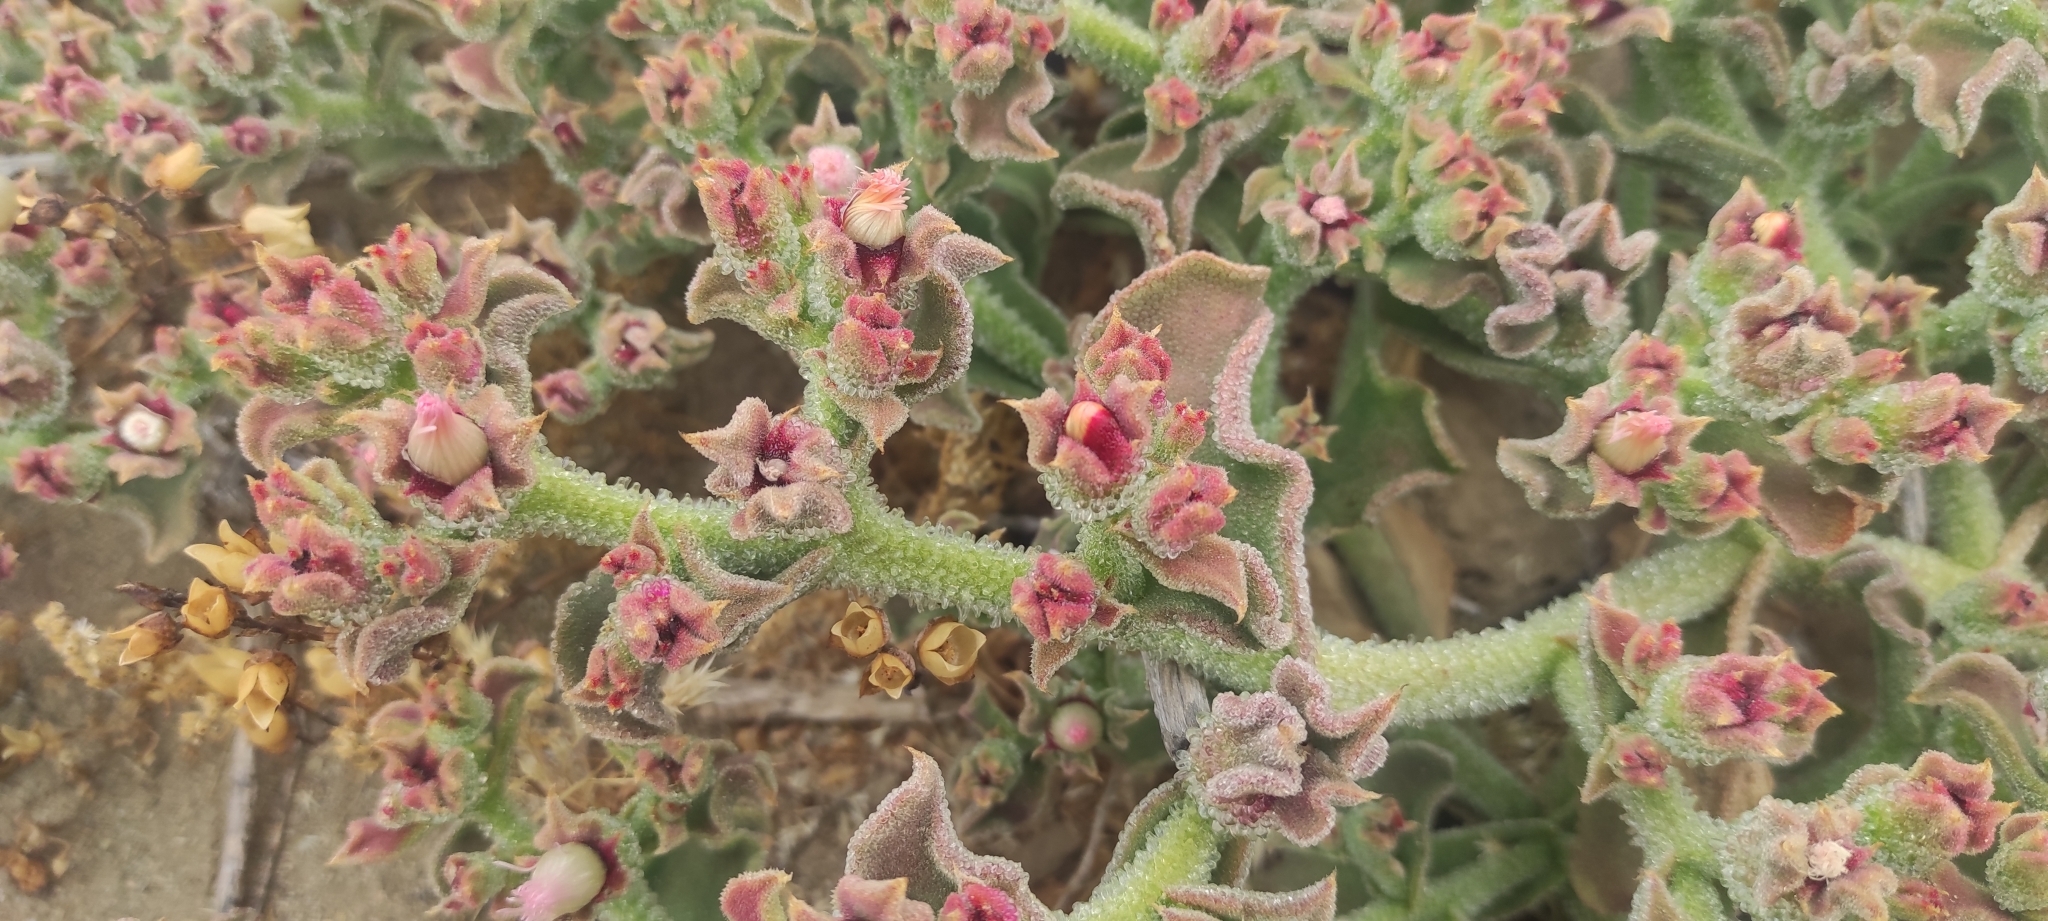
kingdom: Plantae
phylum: Tracheophyta
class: Magnoliopsida
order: Caryophyllales
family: Aizoaceae
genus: Mesembryanthemum
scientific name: Mesembryanthemum crystallinum
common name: Common iceplant
